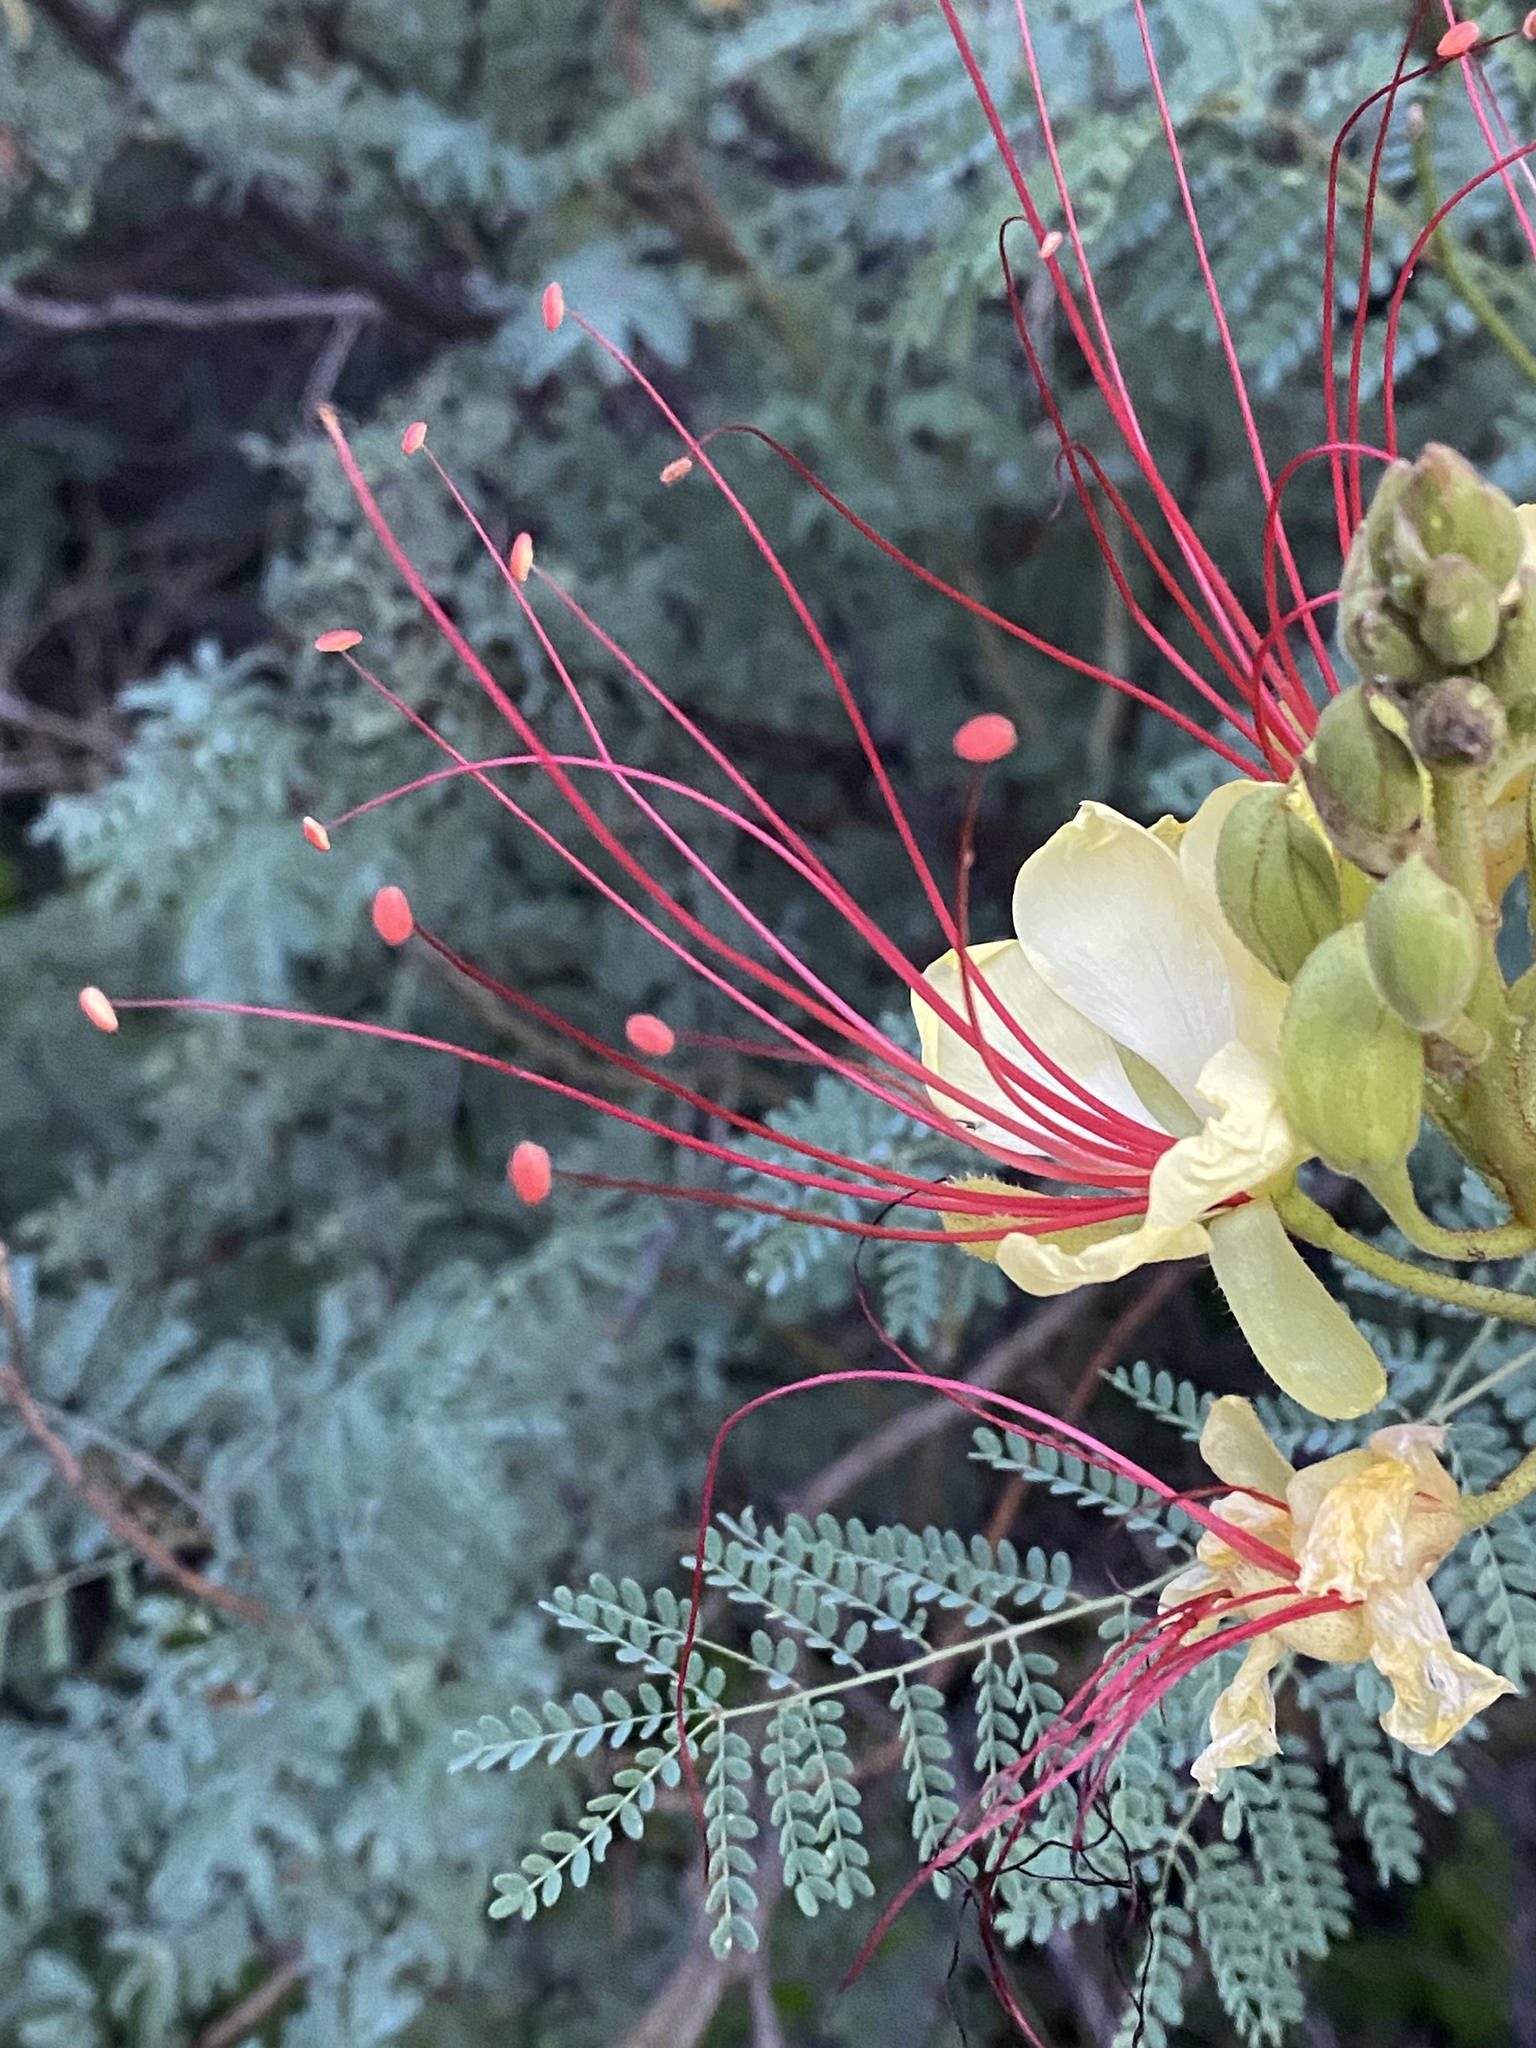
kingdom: Plantae
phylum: Tracheophyta
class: Magnoliopsida
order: Fabales
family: Fabaceae
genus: Erythrostemon
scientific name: Erythrostemon gilliesii
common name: Bird-of-paradise shrub
